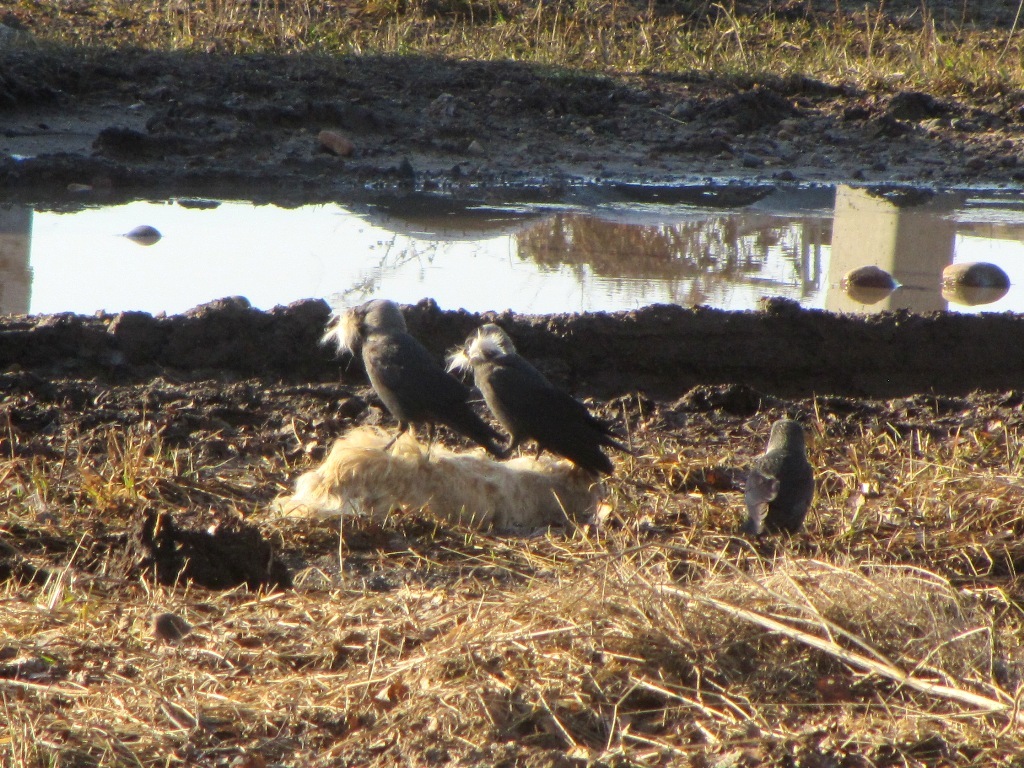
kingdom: Animalia
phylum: Chordata
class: Aves
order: Passeriformes
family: Corvidae
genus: Coloeus
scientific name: Coloeus monedula
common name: Western jackdaw
